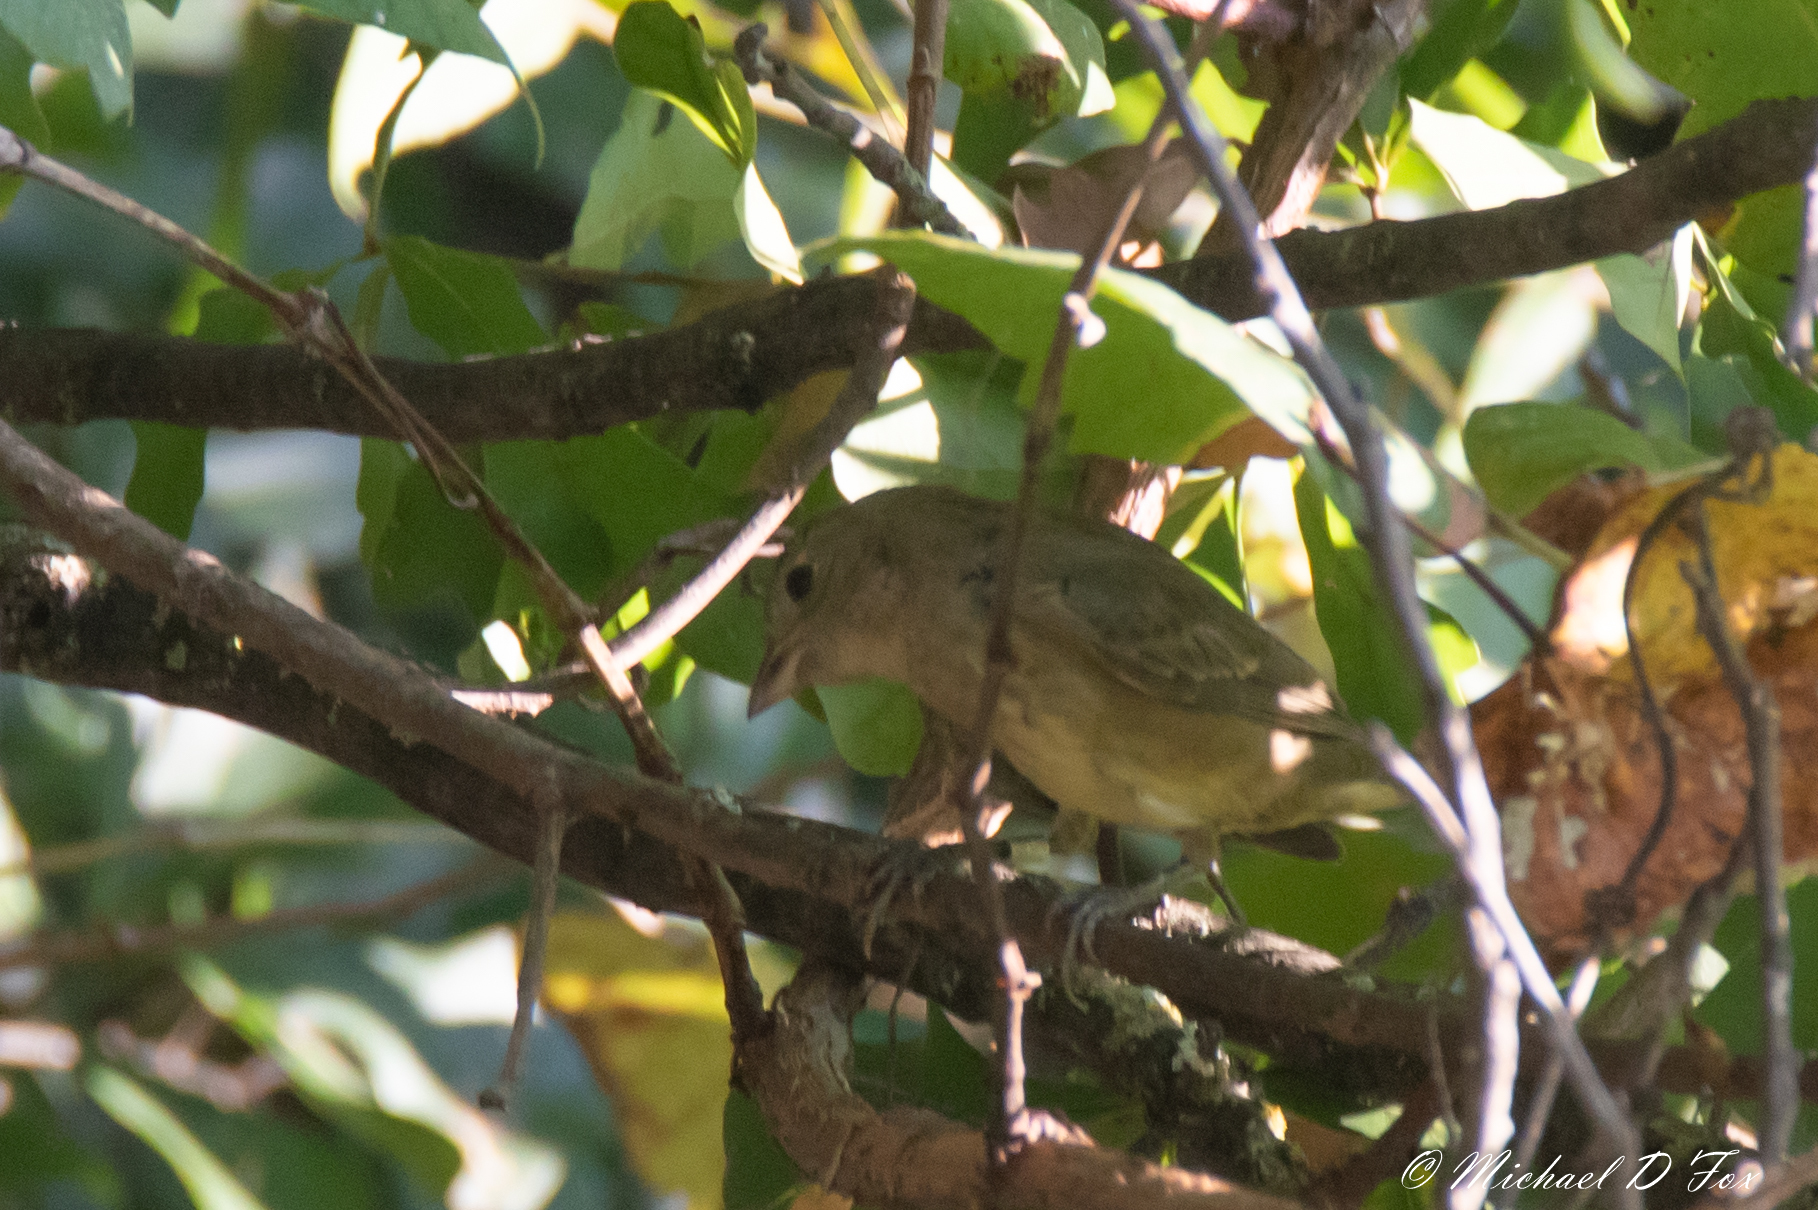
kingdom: Animalia
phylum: Chordata
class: Aves
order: Passeriformes
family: Cardinalidae
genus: Passerina
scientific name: Passerina ciris
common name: Painted bunting
